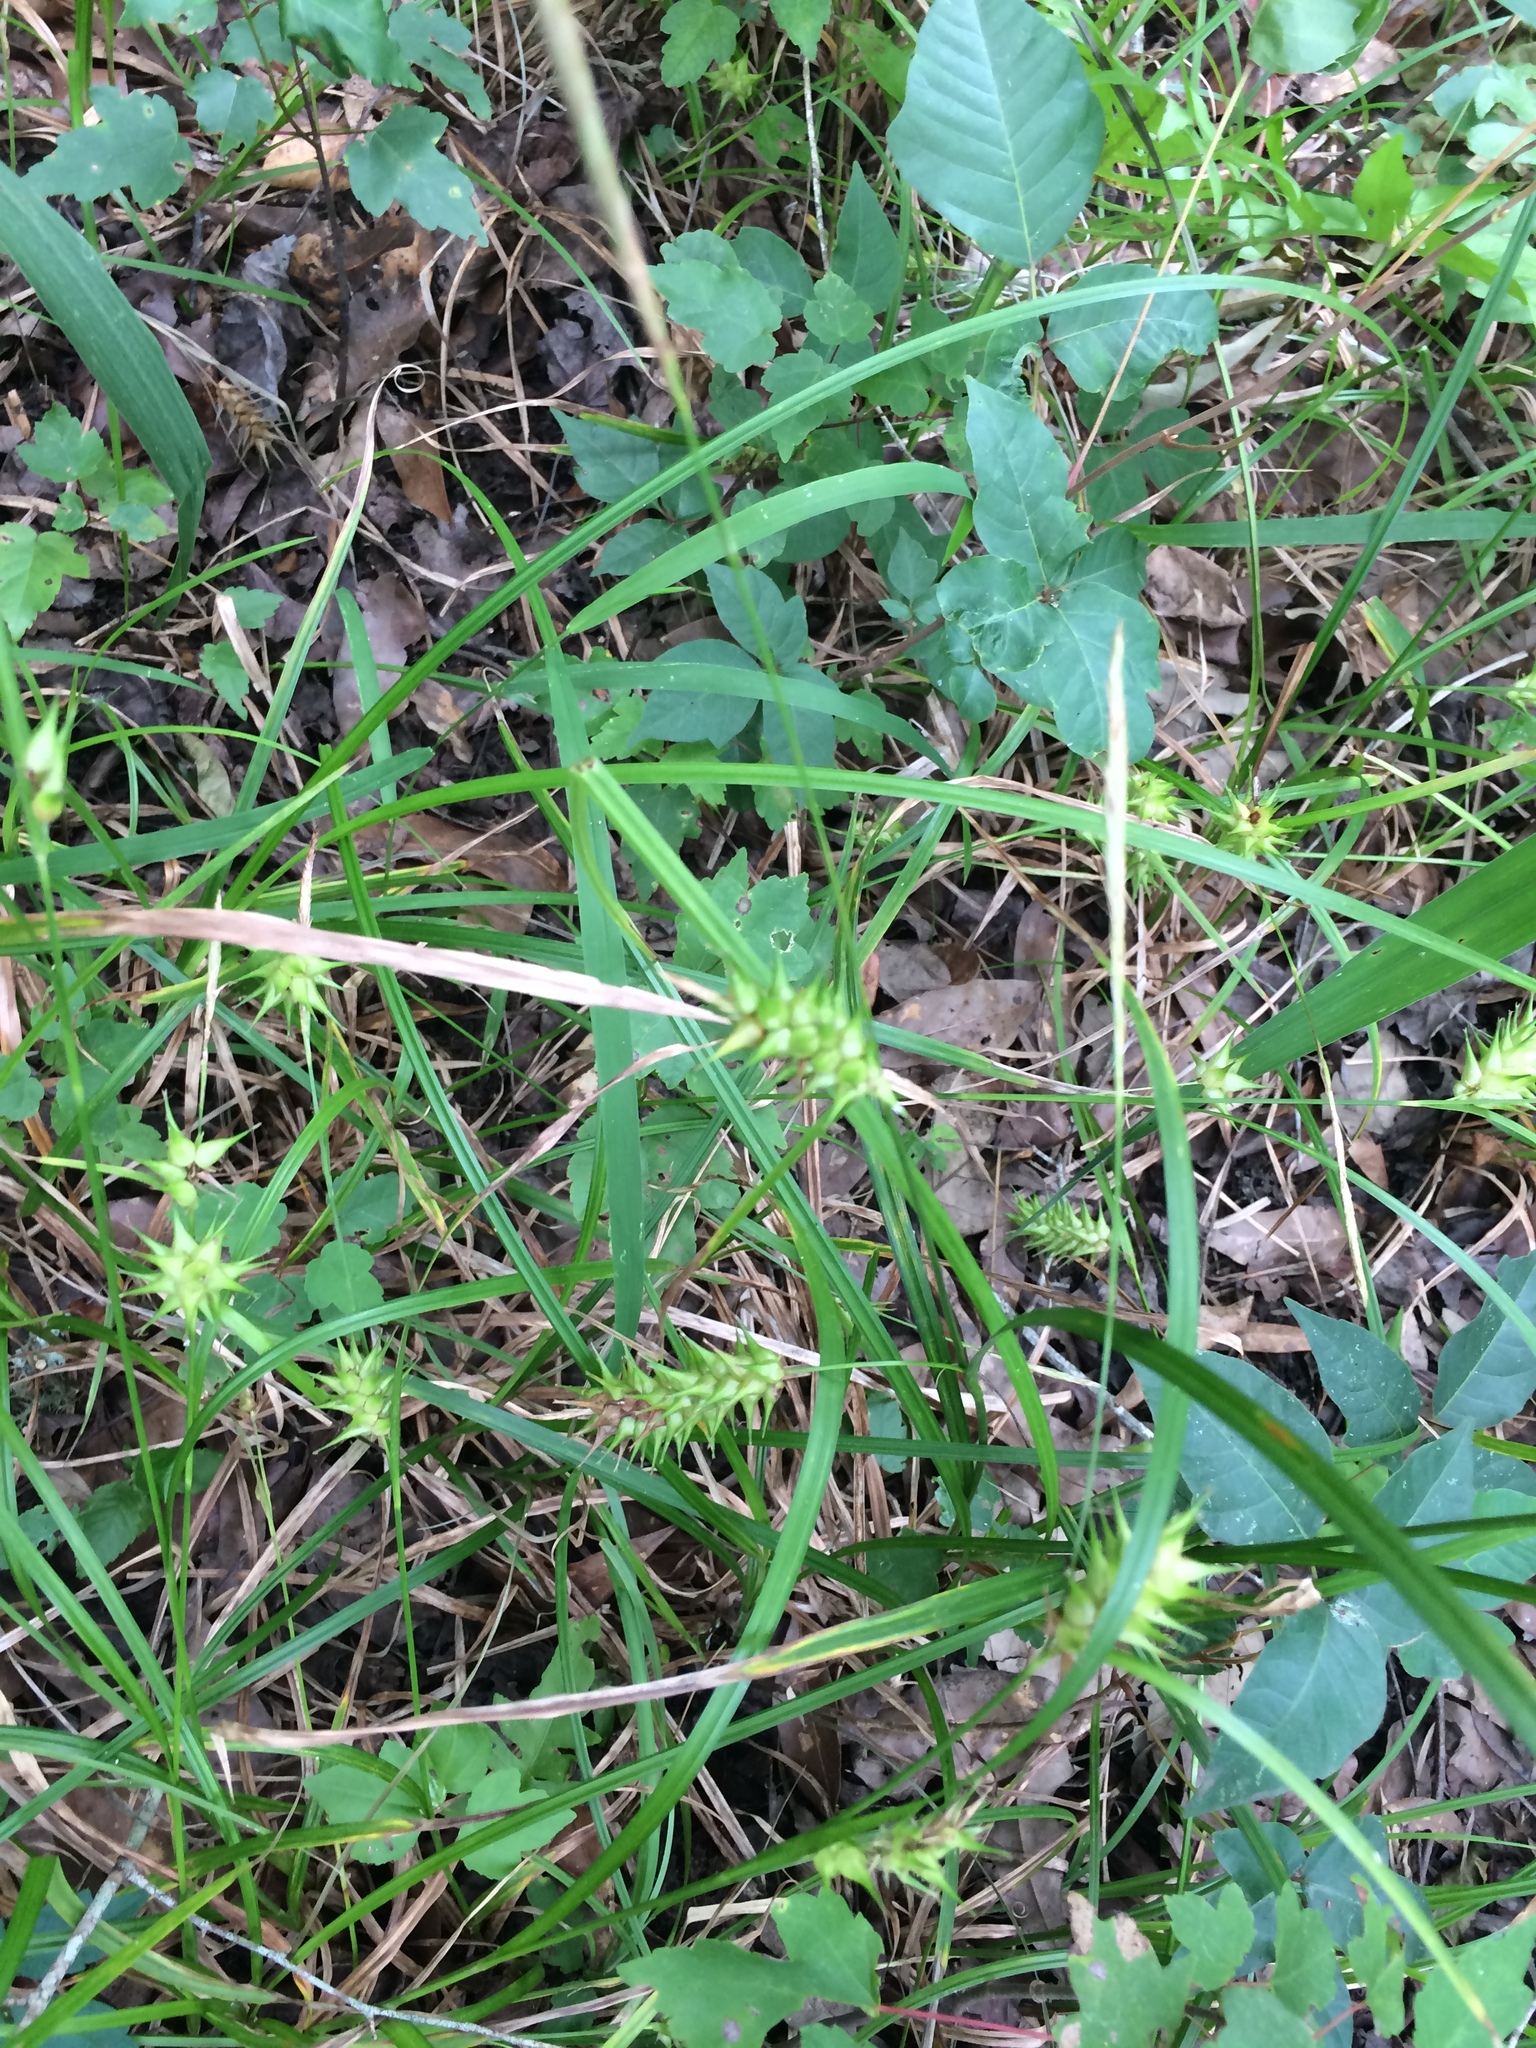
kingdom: Plantae
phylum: Tracheophyta
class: Liliopsida
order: Poales
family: Cyperaceae
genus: Carex
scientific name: Carex louisianica
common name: Louisiana sedge
